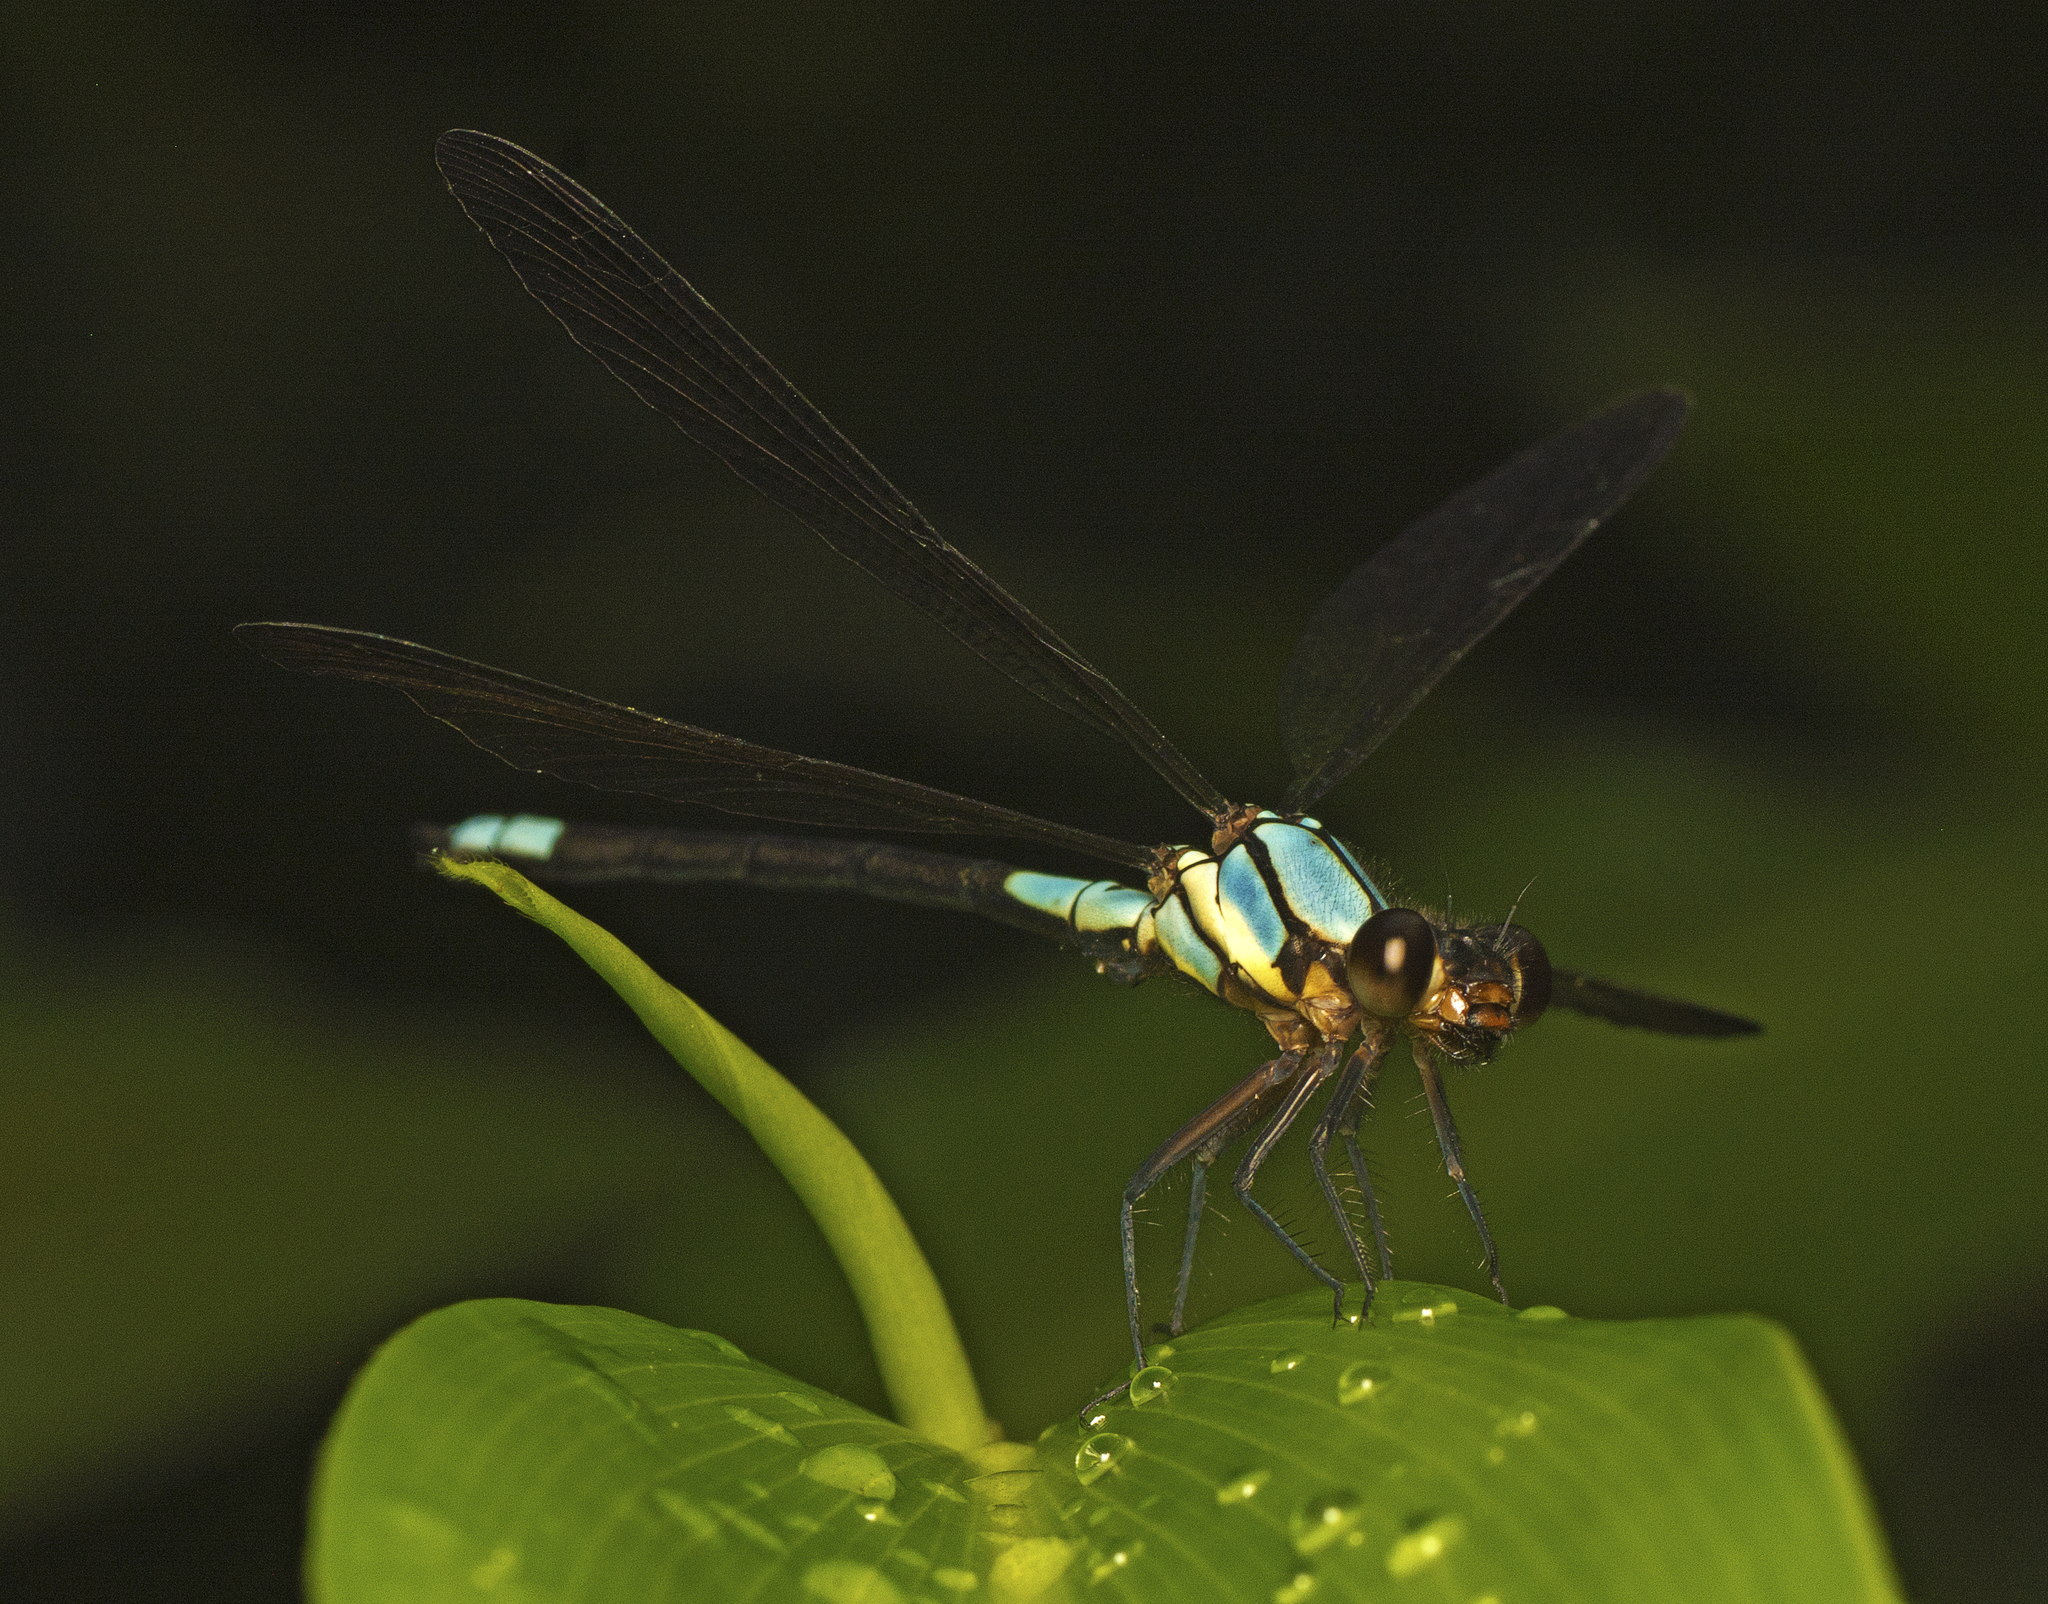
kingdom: Animalia
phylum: Arthropoda
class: Insecta
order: Odonata
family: Lestoideidae
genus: Diphlebia
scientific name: Diphlebia euphoeoides
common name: Tropical rockmaster
